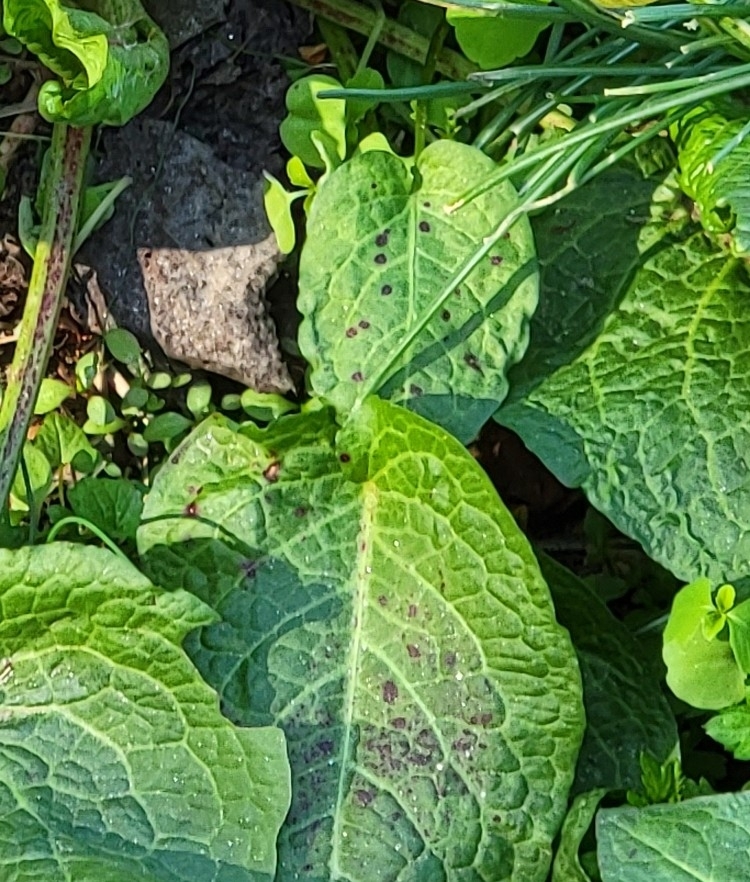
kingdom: Fungi
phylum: Ascomycota
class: Dothideomycetes
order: Mycosphaerellales
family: Mycosphaerellaceae
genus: Ramularia
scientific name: Ramularia rubella
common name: Red dock spot
